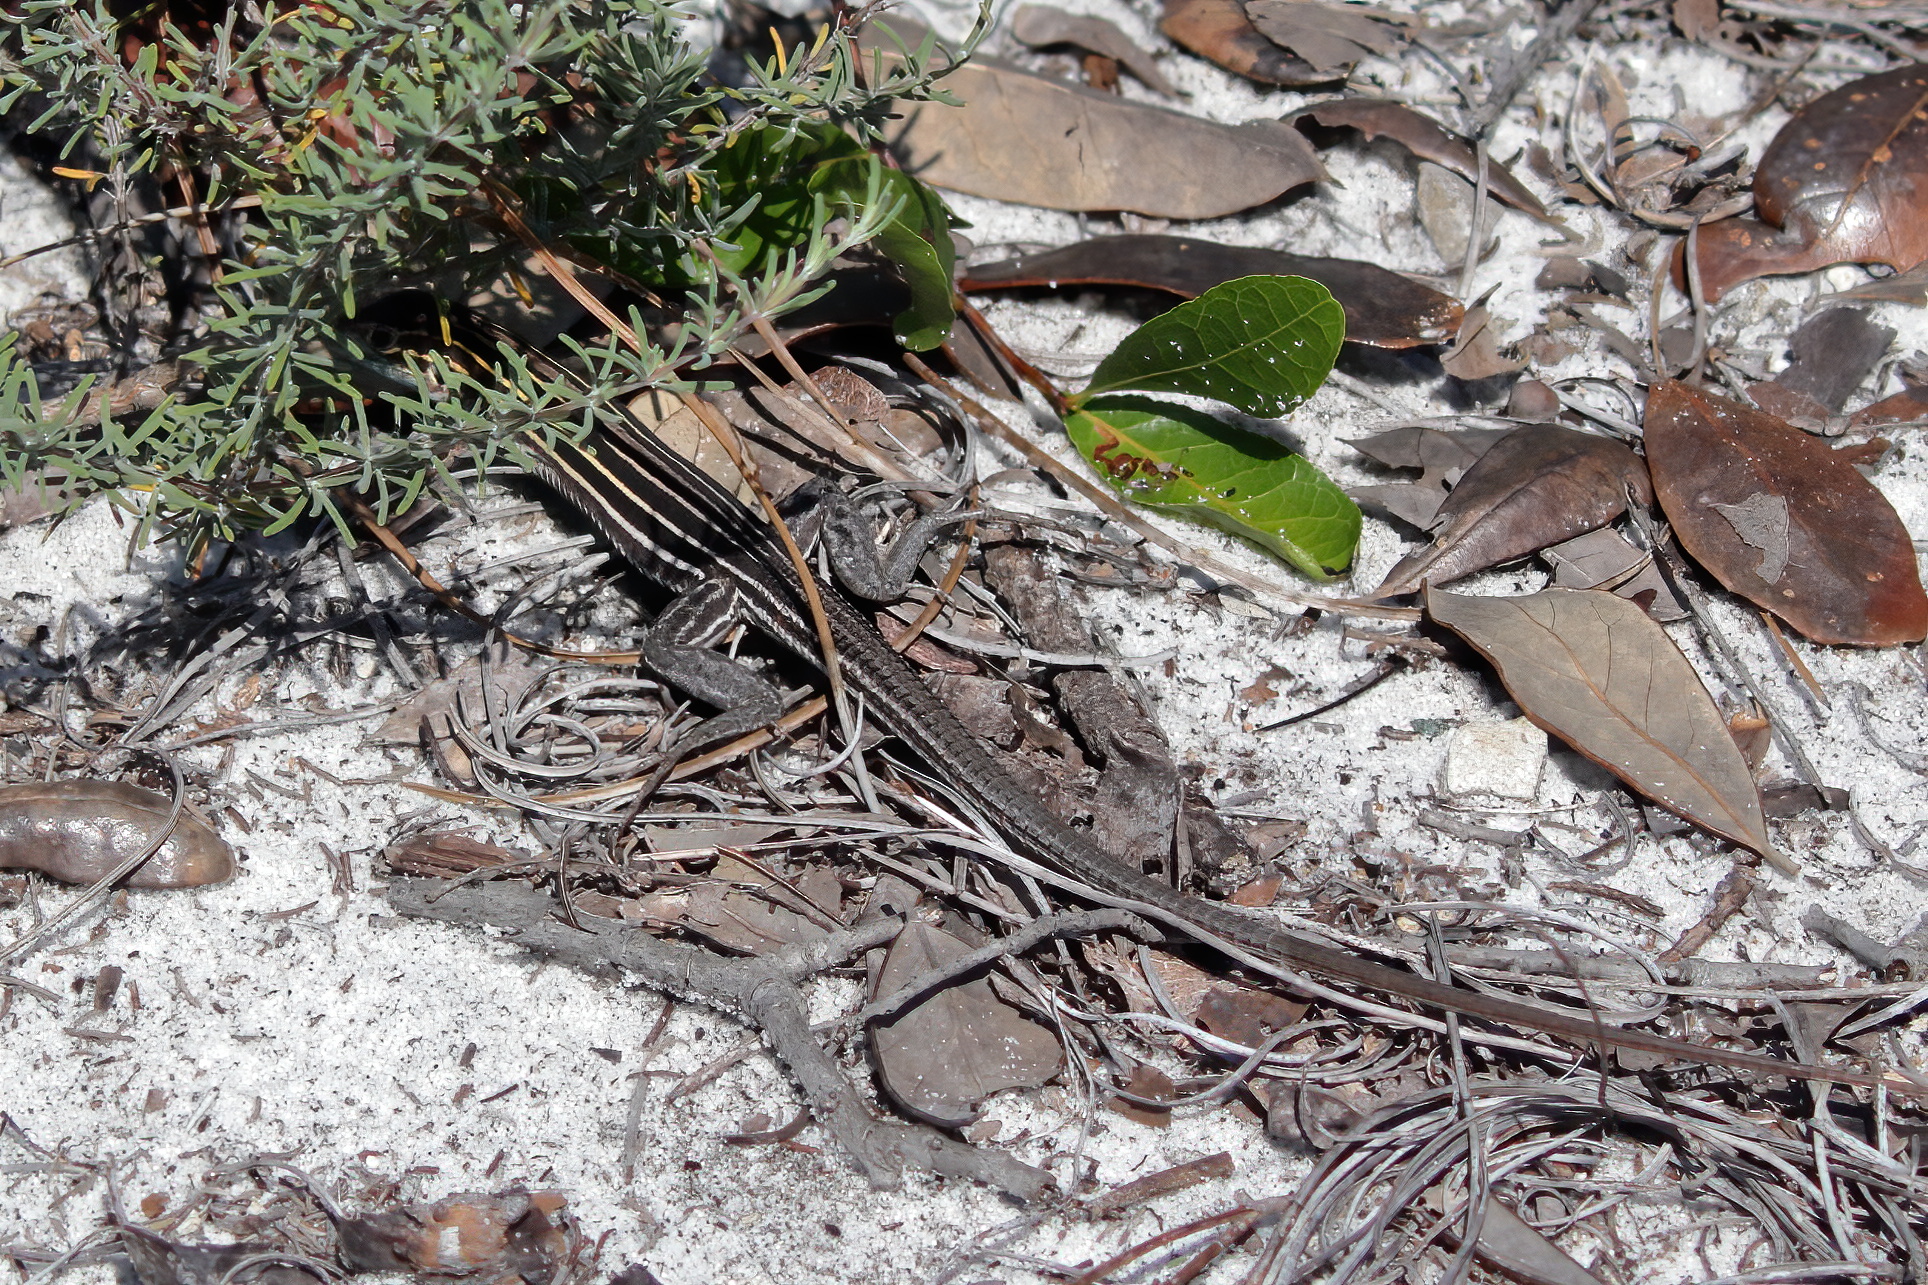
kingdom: Animalia
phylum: Chordata
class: Squamata
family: Teiidae
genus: Aspidoscelis
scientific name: Aspidoscelis sexlineatus
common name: Six-lined racerunner
